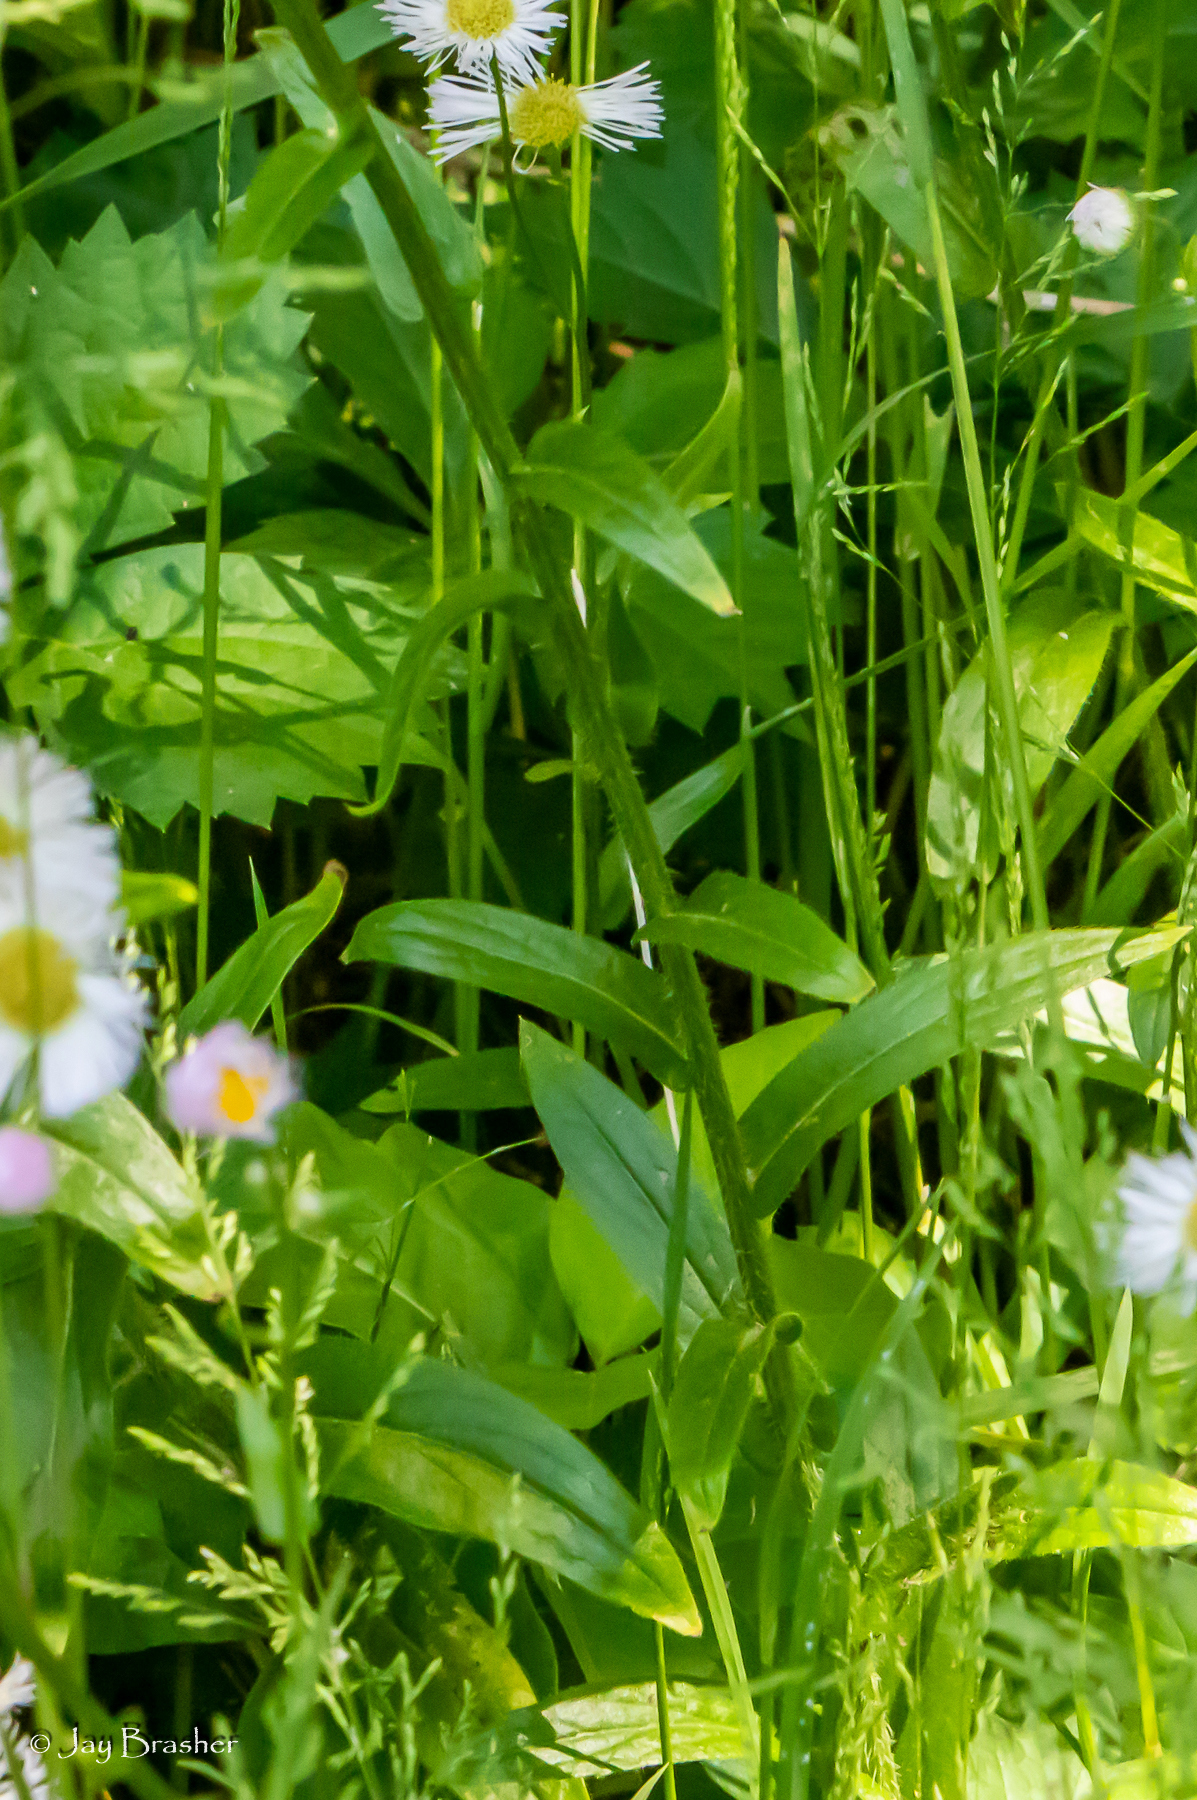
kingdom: Plantae
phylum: Tracheophyta
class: Magnoliopsida
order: Asterales
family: Asteraceae
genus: Erigeron
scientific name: Erigeron philadelphicus
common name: Robin's-plantain
